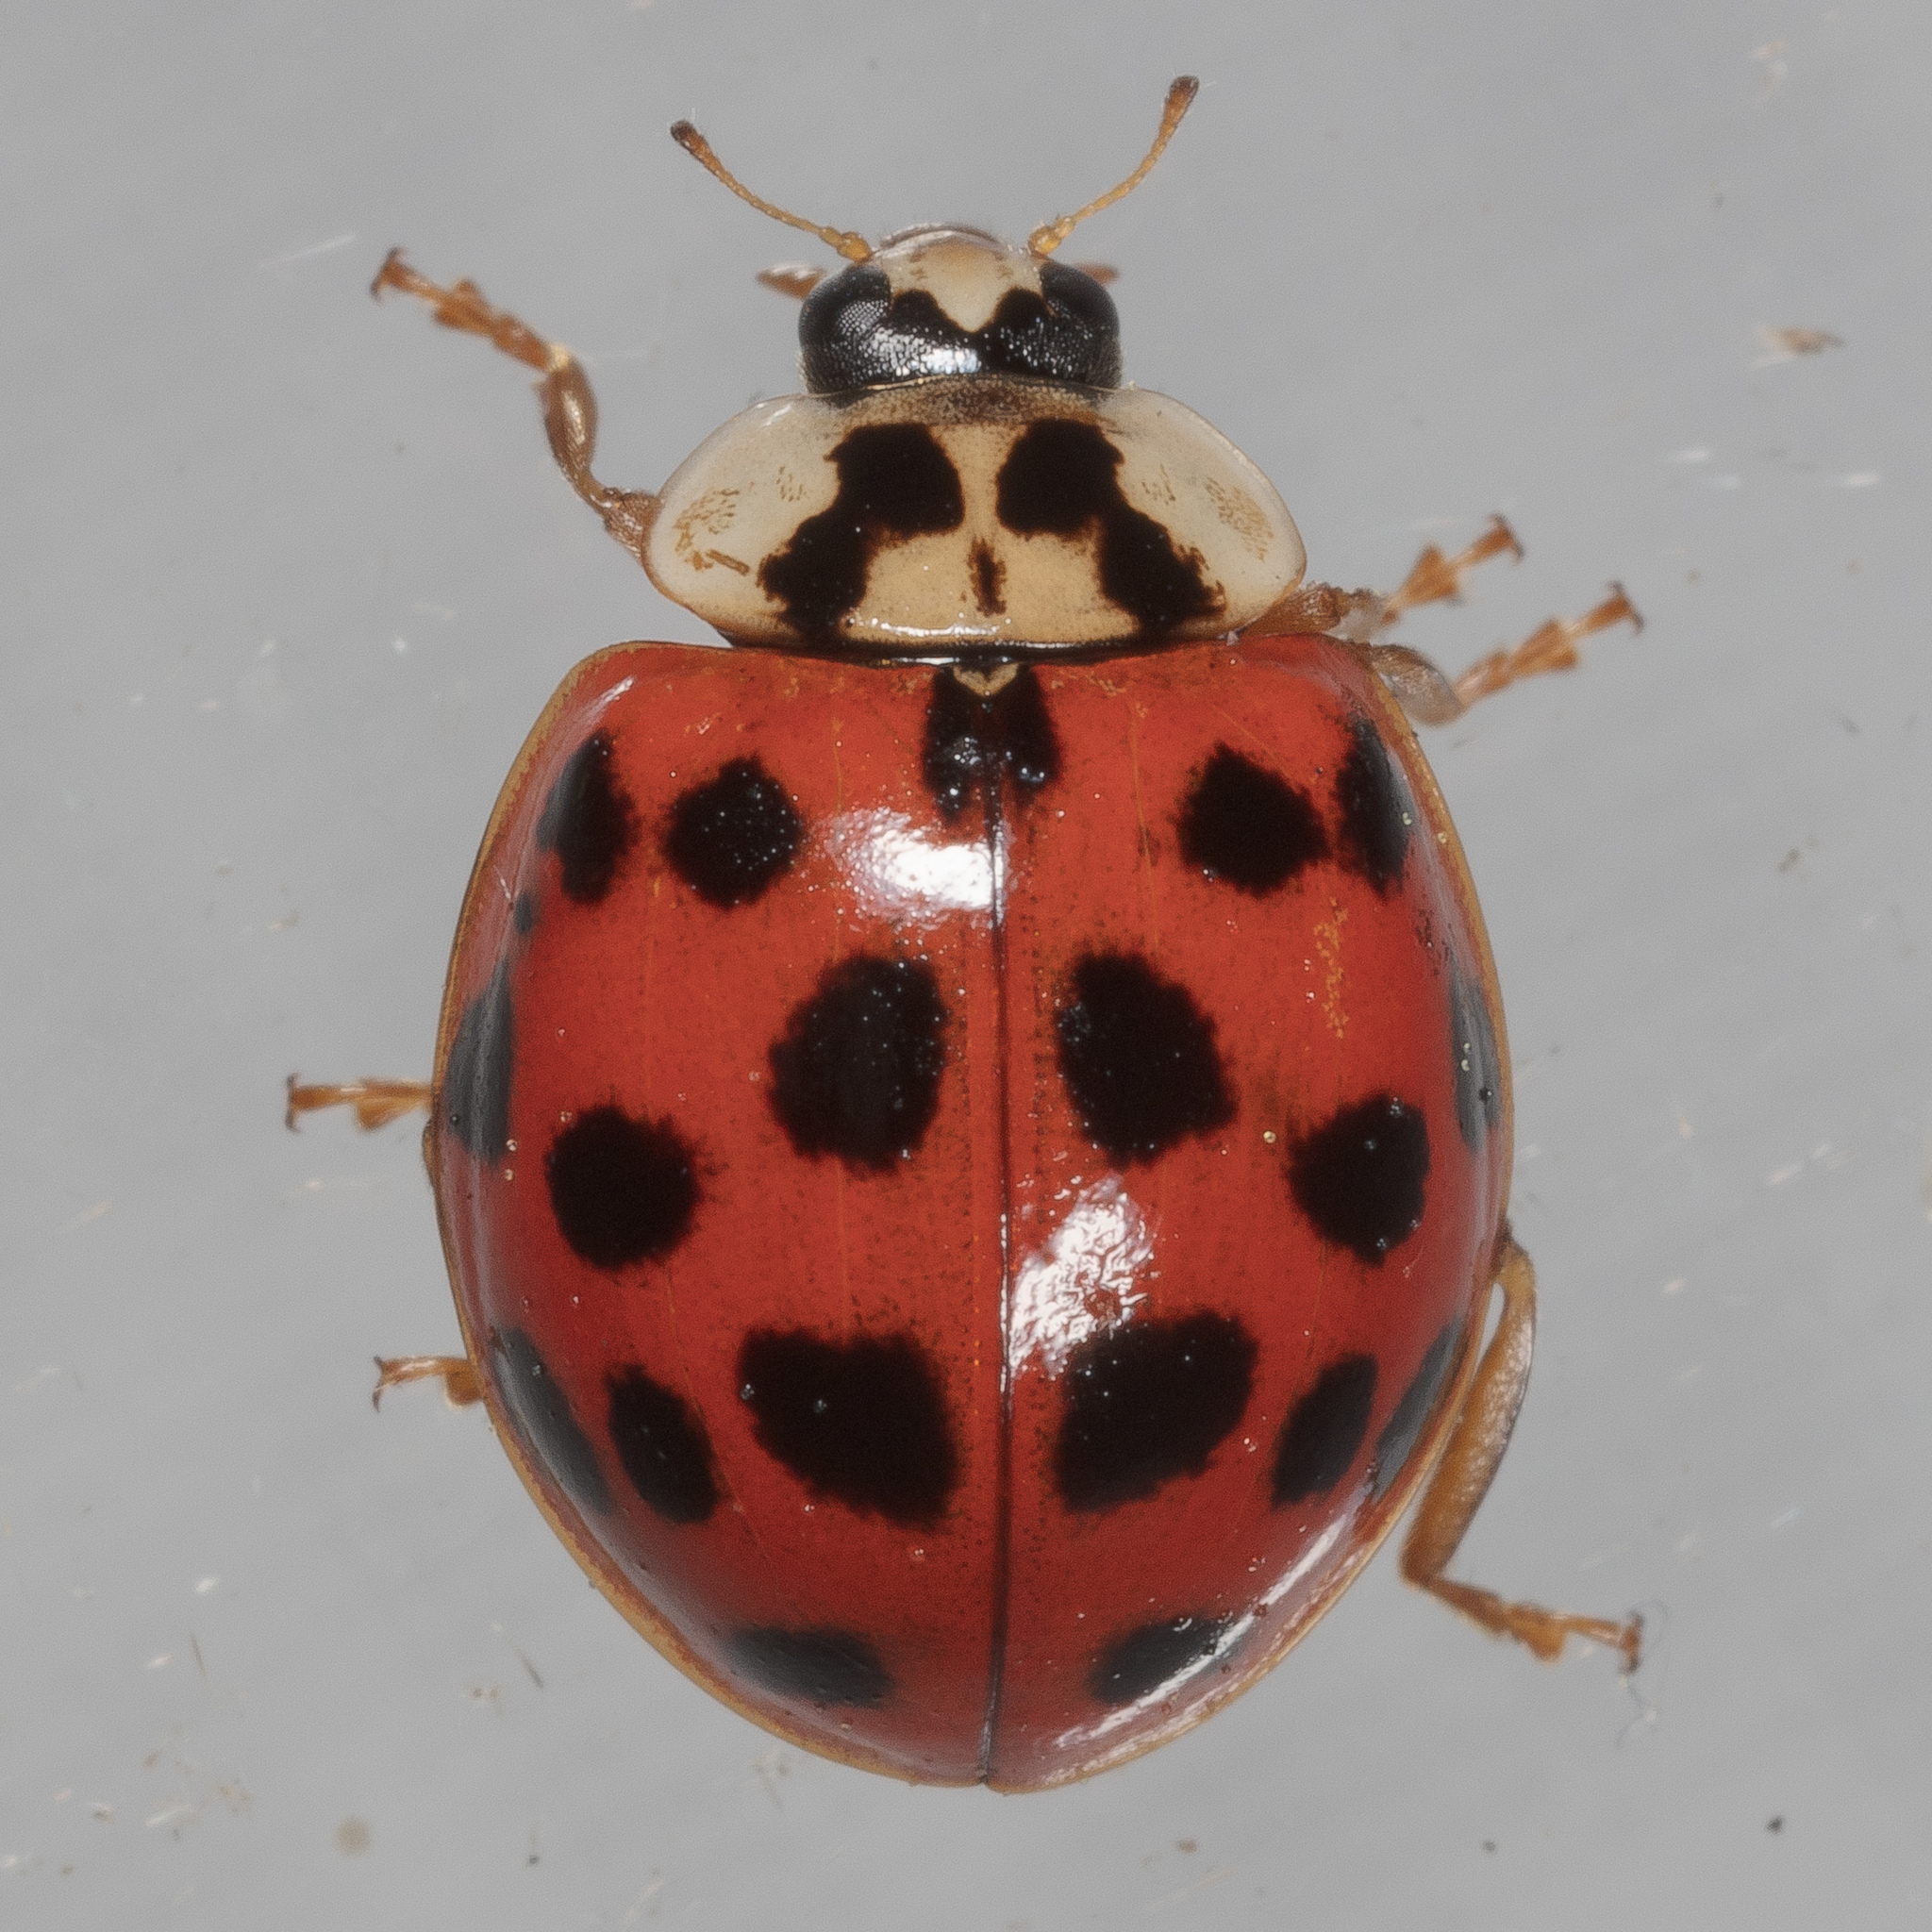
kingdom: Animalia
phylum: Arthropoda
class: Insecta
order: Coleoptera
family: Coccinellidae
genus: Harmonia
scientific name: Harmonia axyridis
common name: Harlequin ladybird
